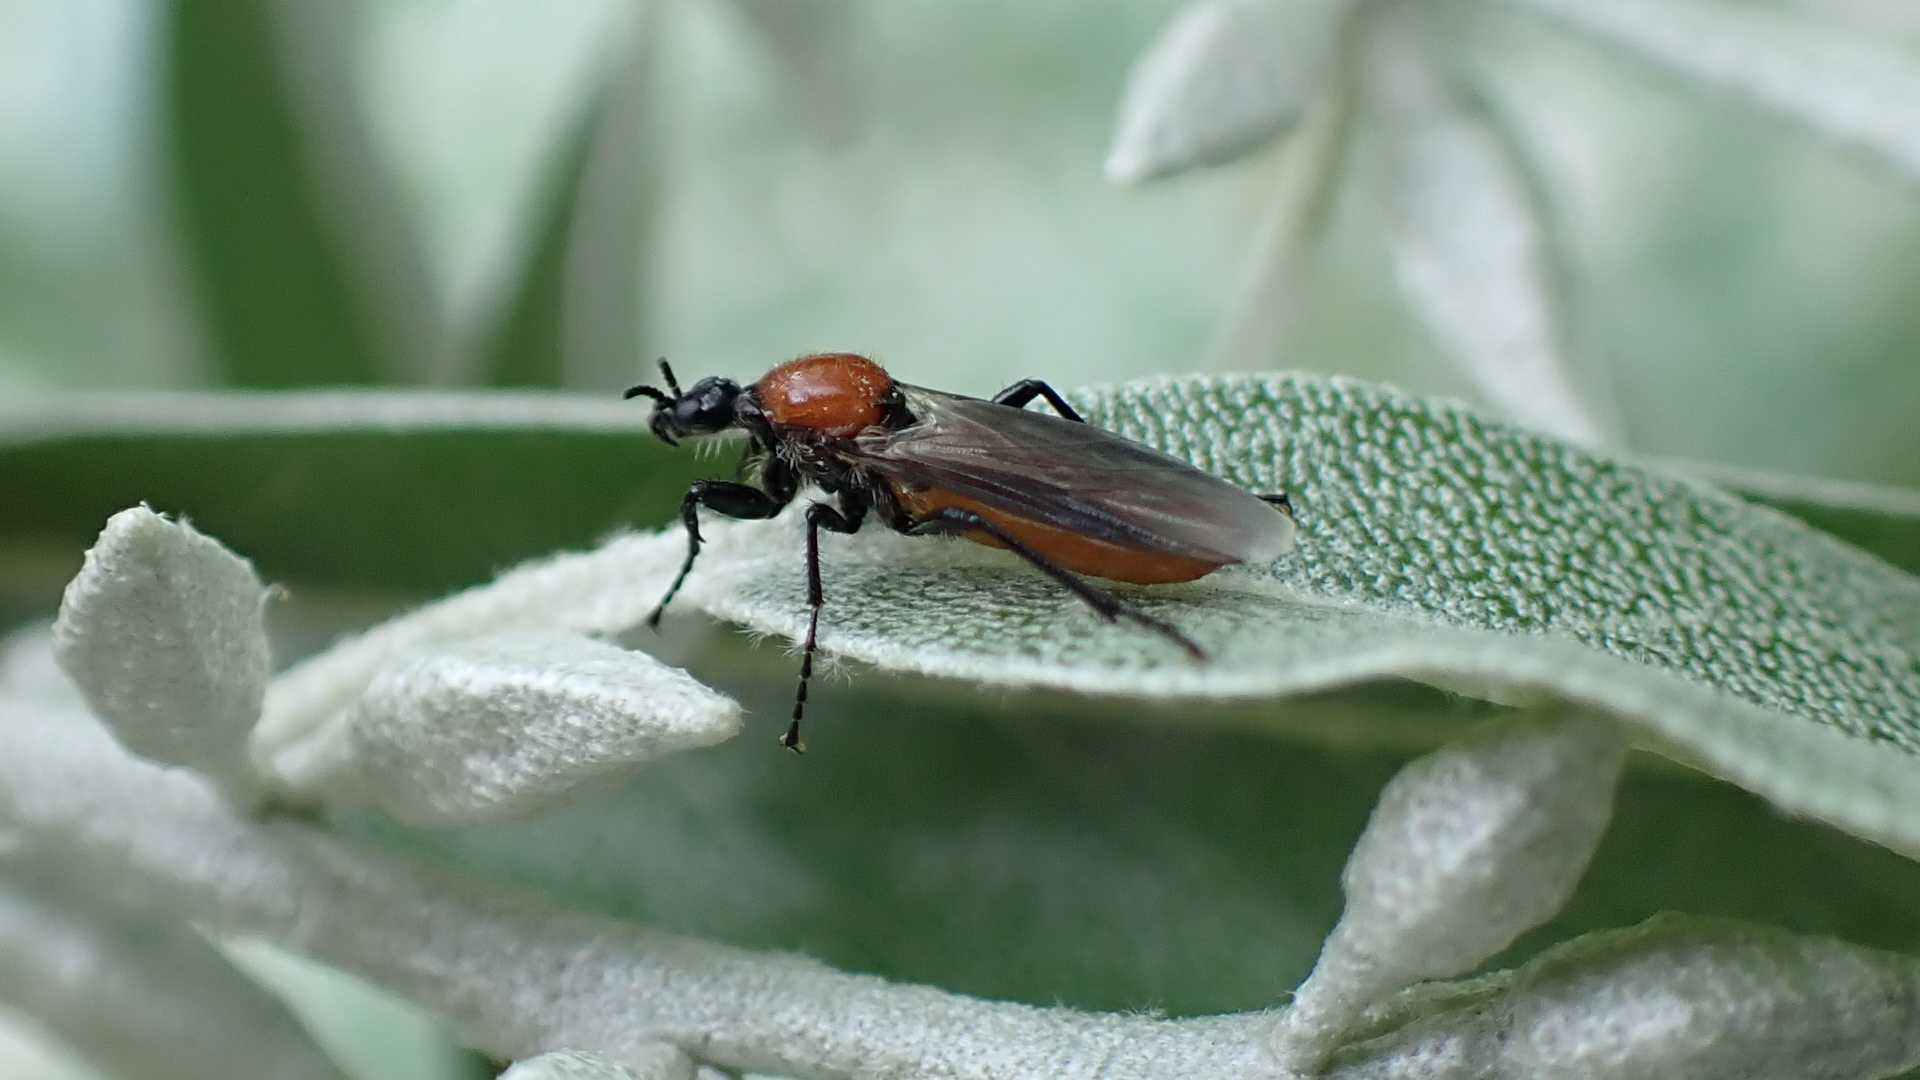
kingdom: Animalia
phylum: Arthropoda
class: Insecta
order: Diptera
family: Bibionidae
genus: Bibio
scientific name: Bibio hortulanus
